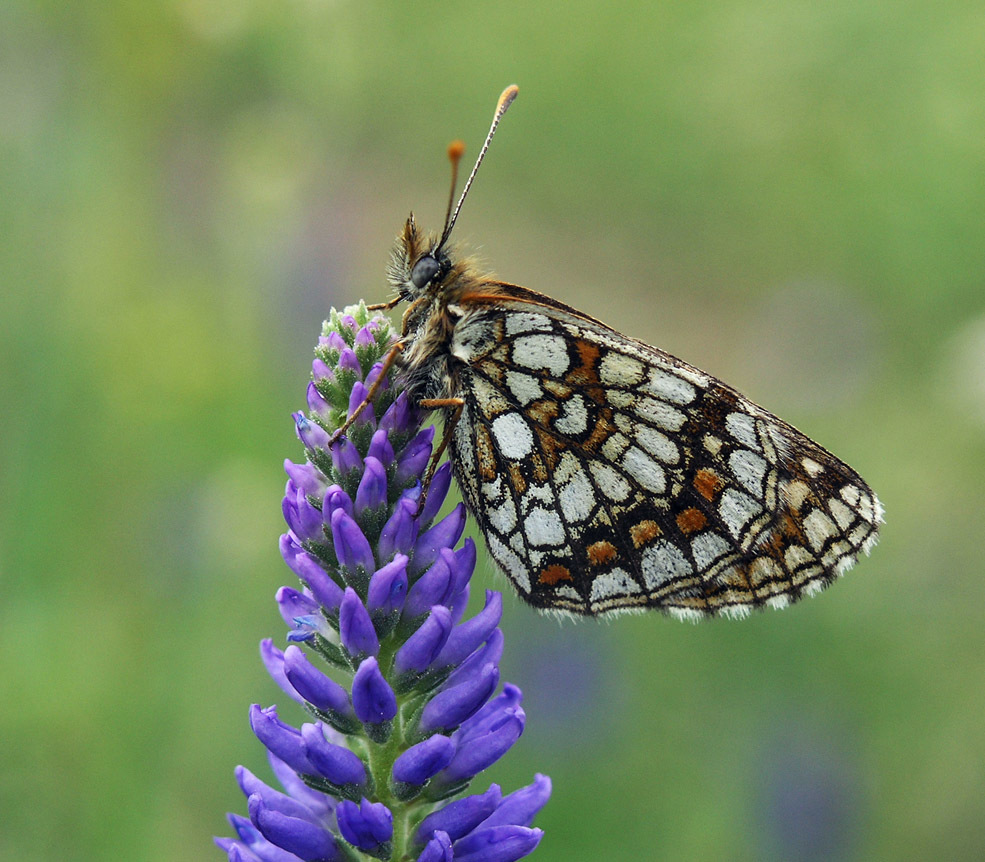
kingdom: Animalia
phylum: Arthropoda
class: Insecta
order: Lepidoptera
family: Nymphalidae
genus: Mellicta
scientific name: Mellicta menetriesi
